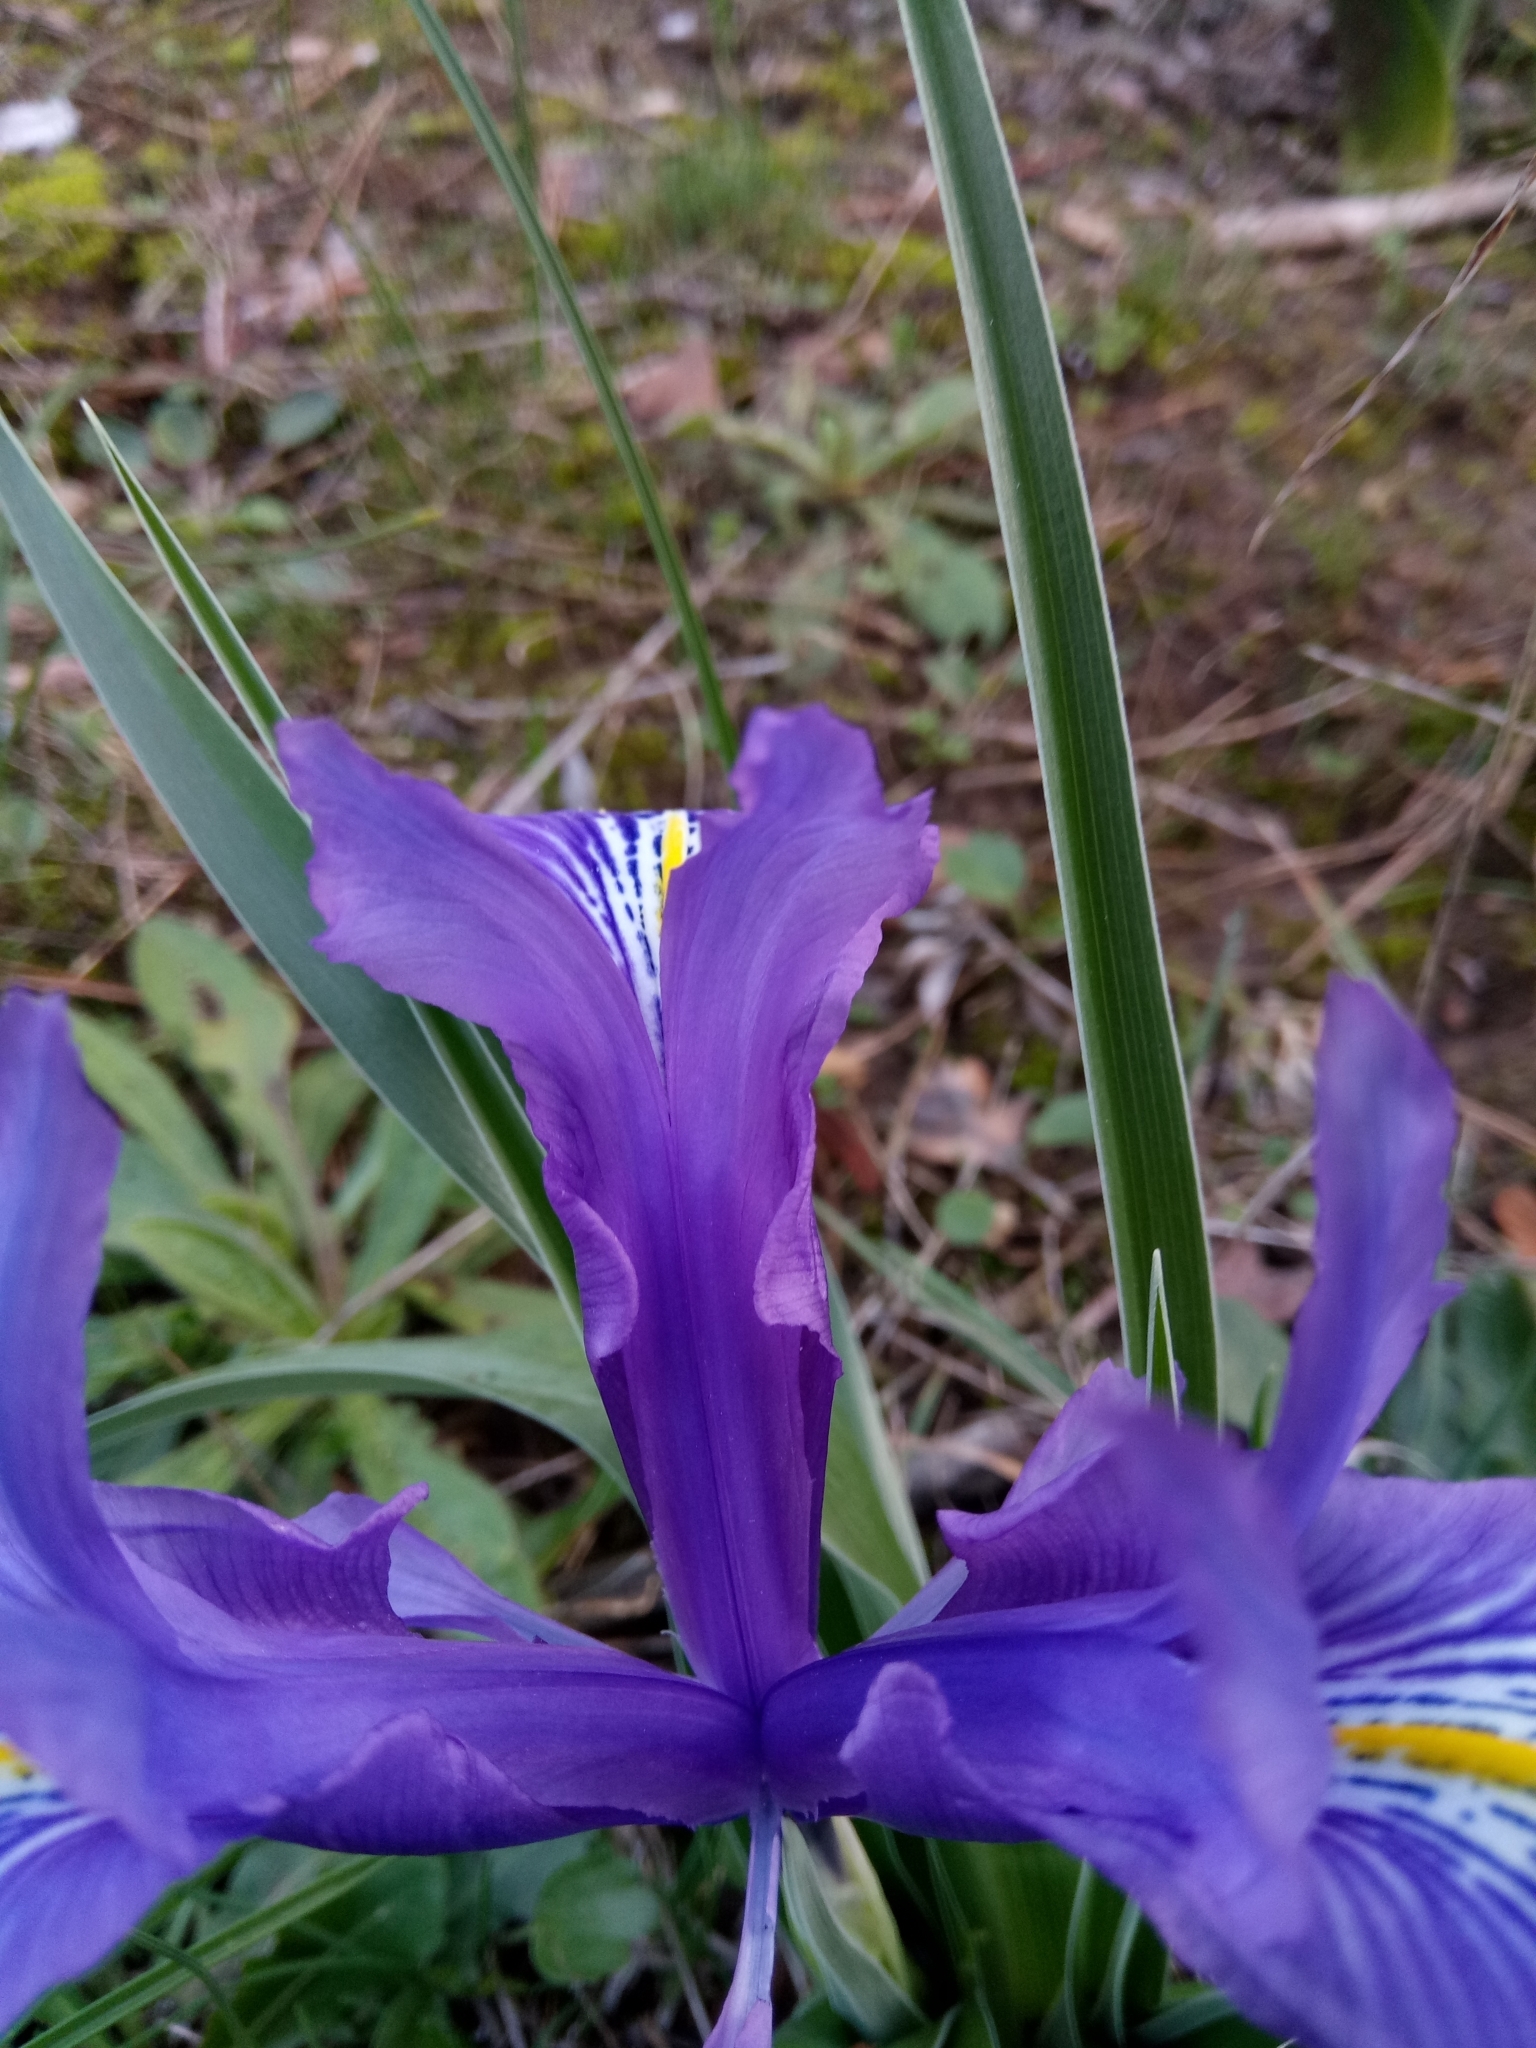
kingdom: Plantae
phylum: Tracheophyta
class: Liliopsida
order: Asparagales
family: Iridaceae
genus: Iris
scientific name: Iris planifolia
